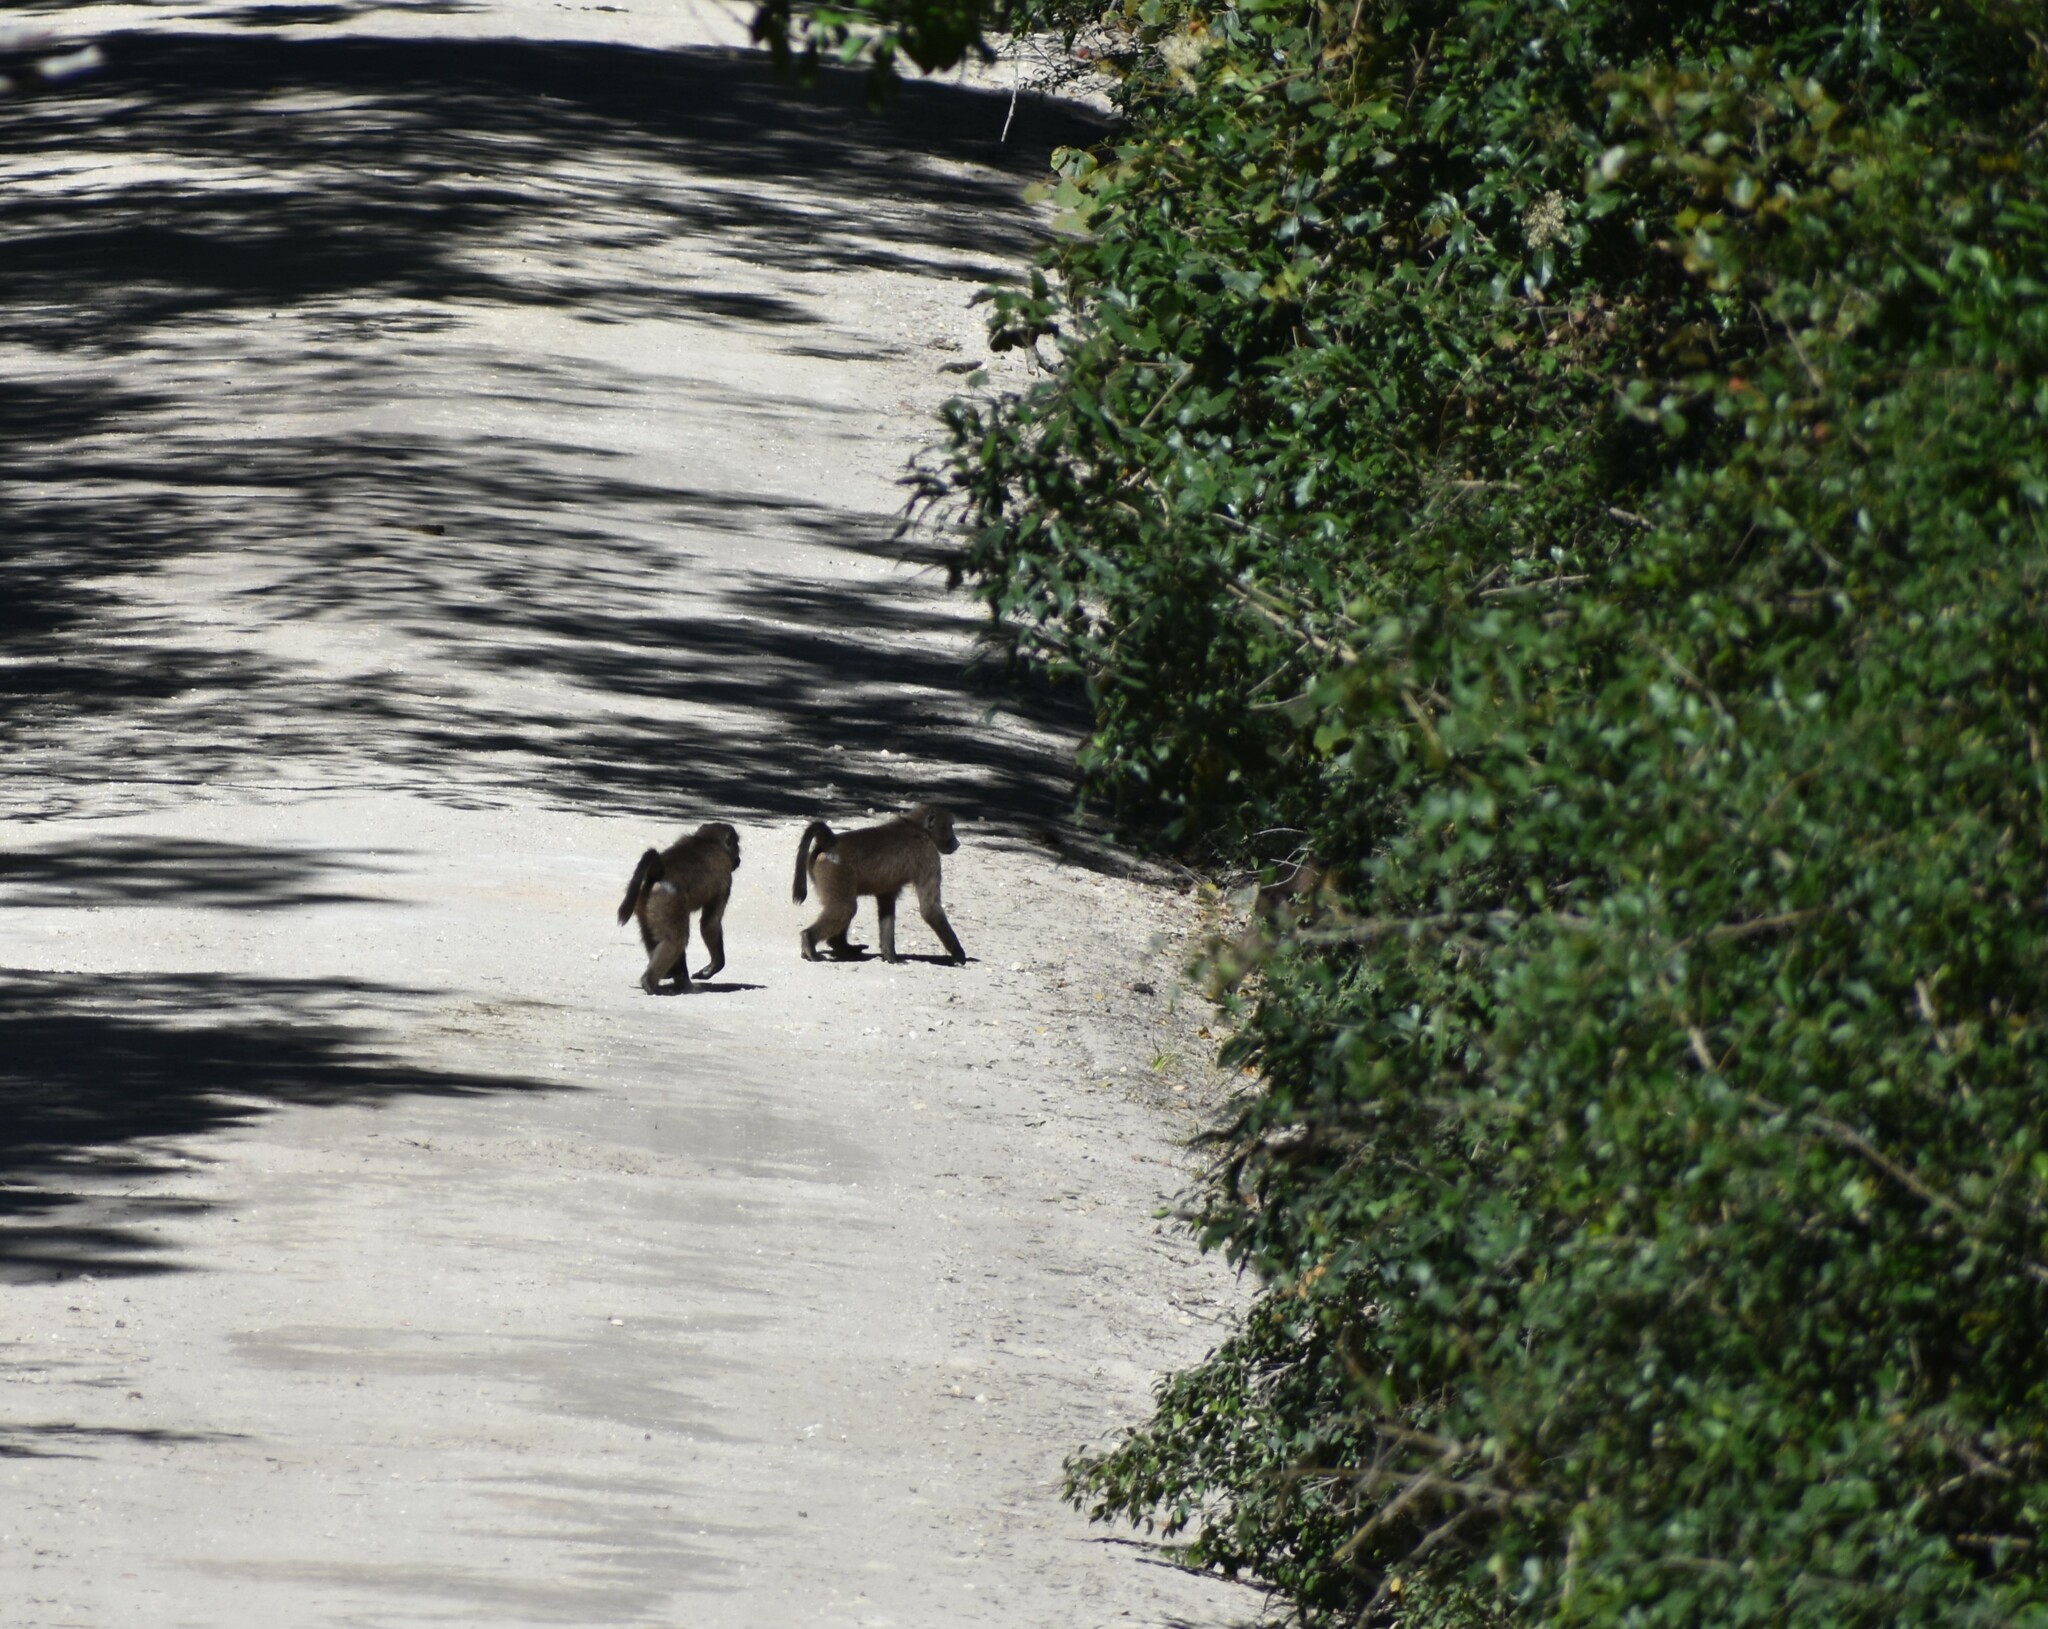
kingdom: Animalia
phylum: Chordata
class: Mammalia
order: Primates
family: Cercopithecidae
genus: Papio
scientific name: Papio ursinus
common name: Chacma baboon
